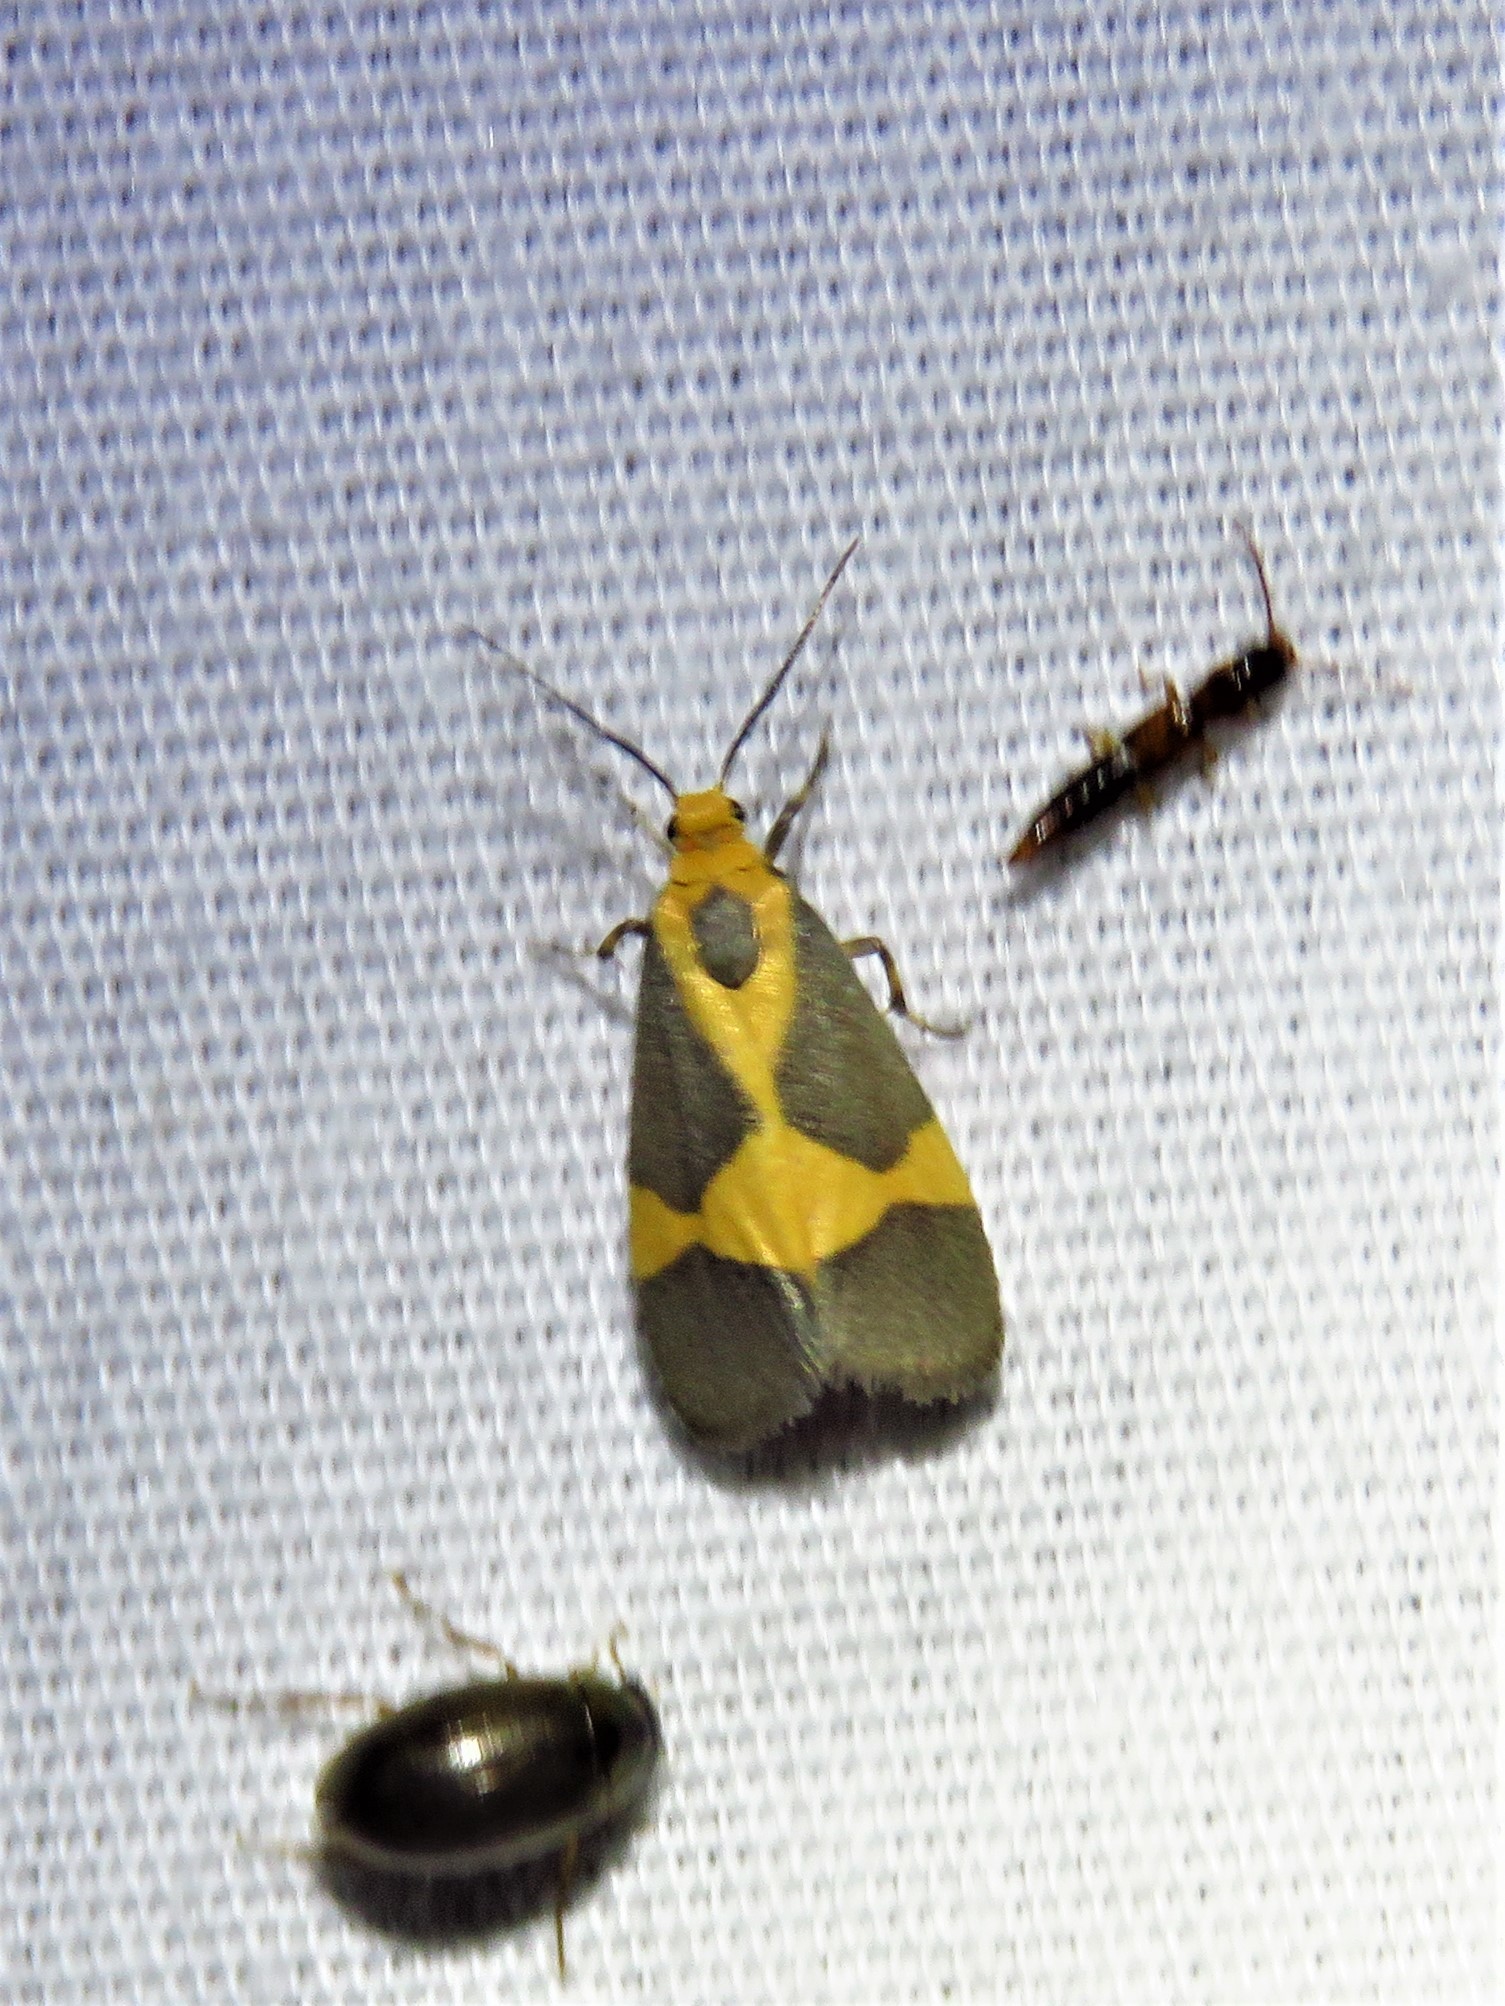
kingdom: Animalia
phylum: Arthropoda
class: Insecta
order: Lepidoptera
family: Erebidae
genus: Cisthene
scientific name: Cisthene unifascia
